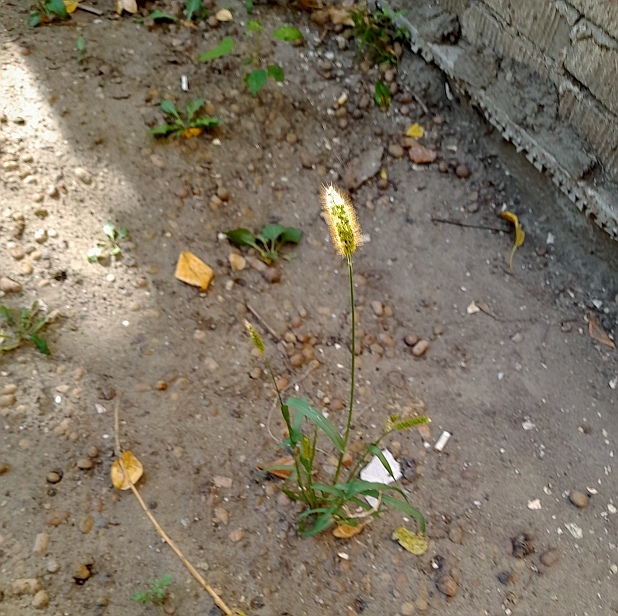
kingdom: Plantae
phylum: Tracheophyta
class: Liliopsida
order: Poales
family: Poaceae
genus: Setaria
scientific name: Setaria pumila
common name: Yellow bristle-grass
